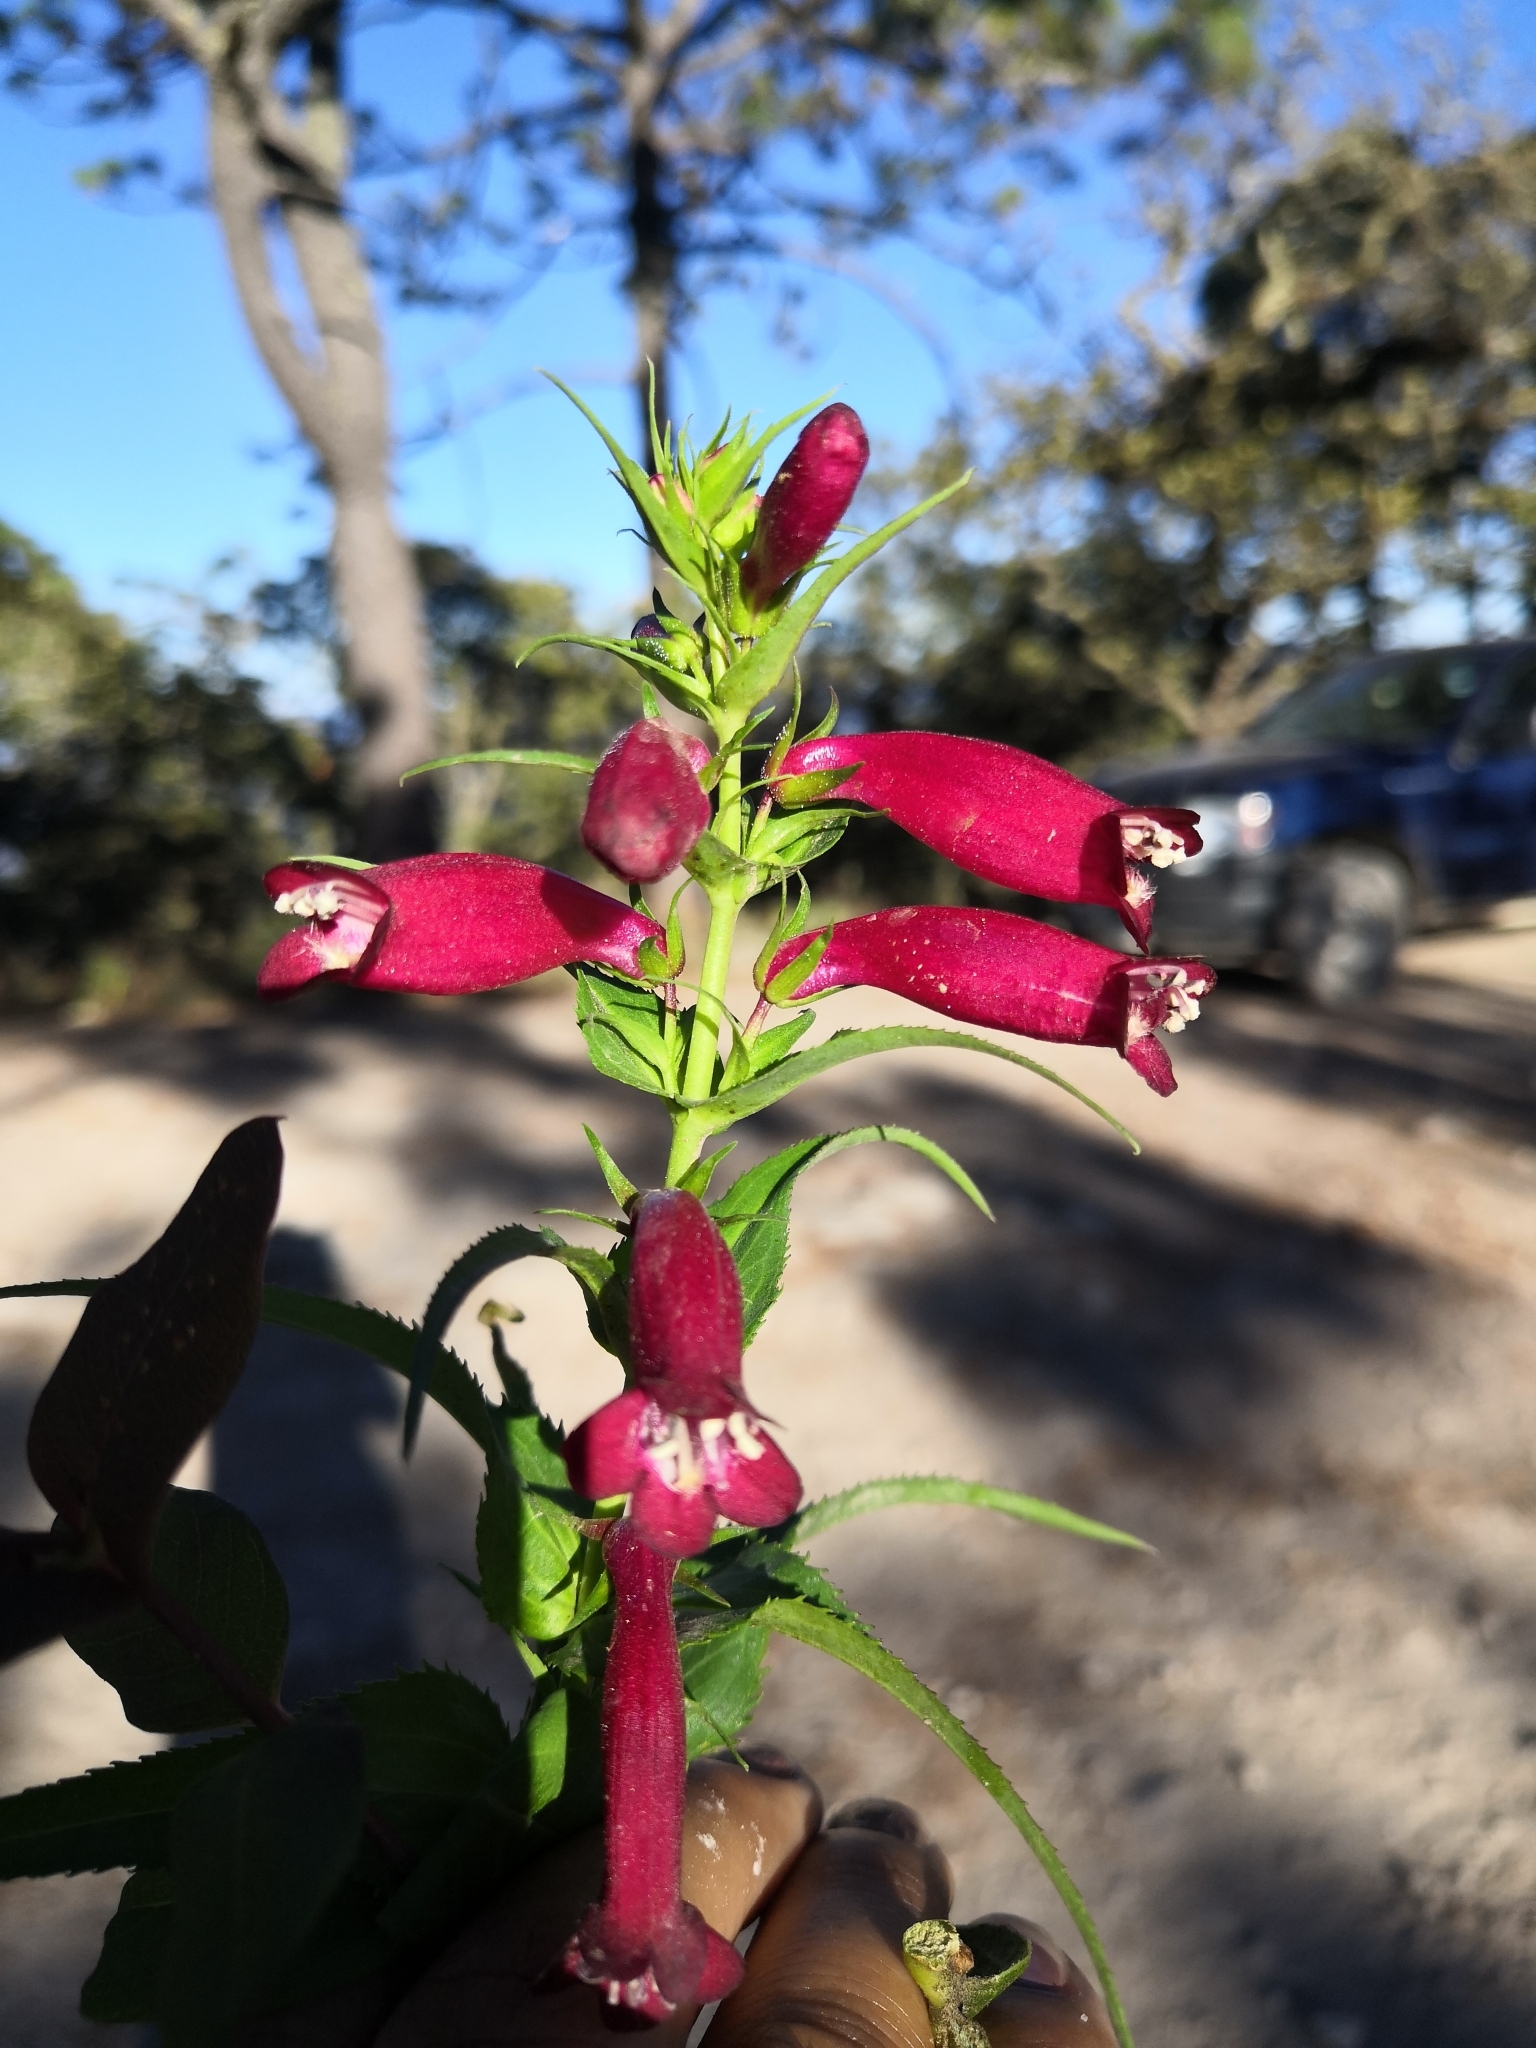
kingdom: Plantae
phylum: Tracheophyta
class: Magnoliopsida
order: Lamiales
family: Plantaginaceae
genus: Penstemon
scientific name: Penstemon roseus
